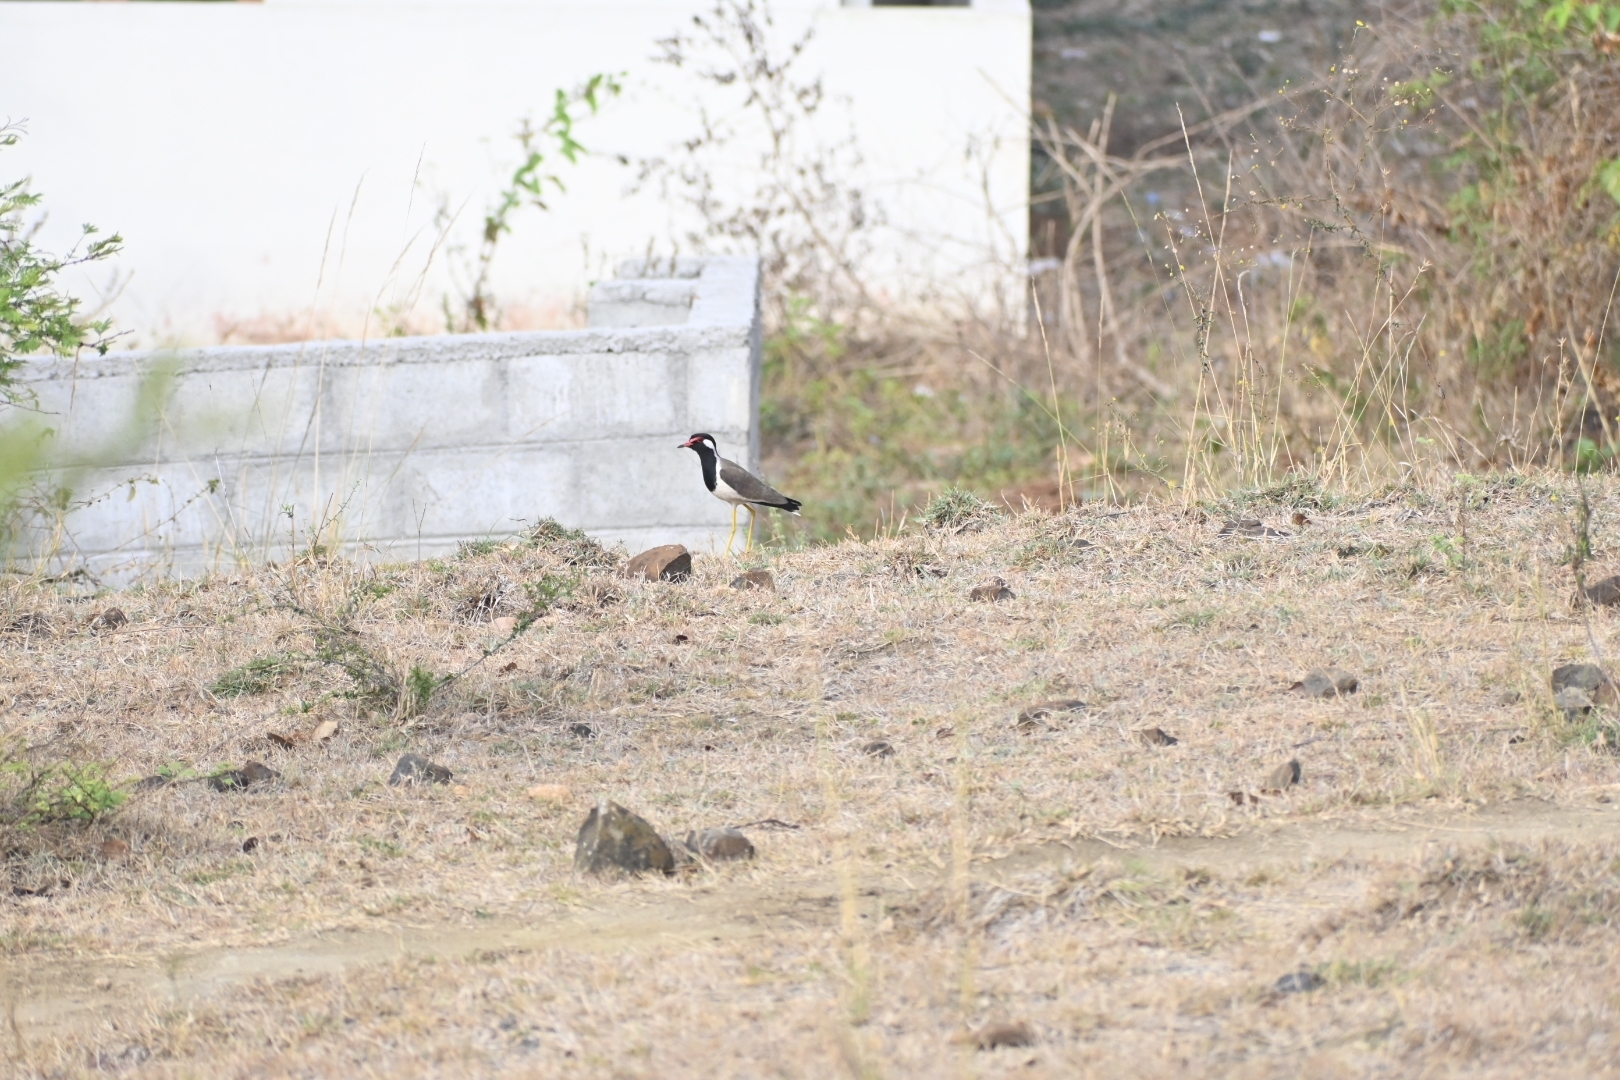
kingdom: Animalia
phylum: Chordata
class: Aves
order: Charadriiformes
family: Charadriidae
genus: Vanellus
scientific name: Vanellus indicus
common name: Red-wattled lapwing
